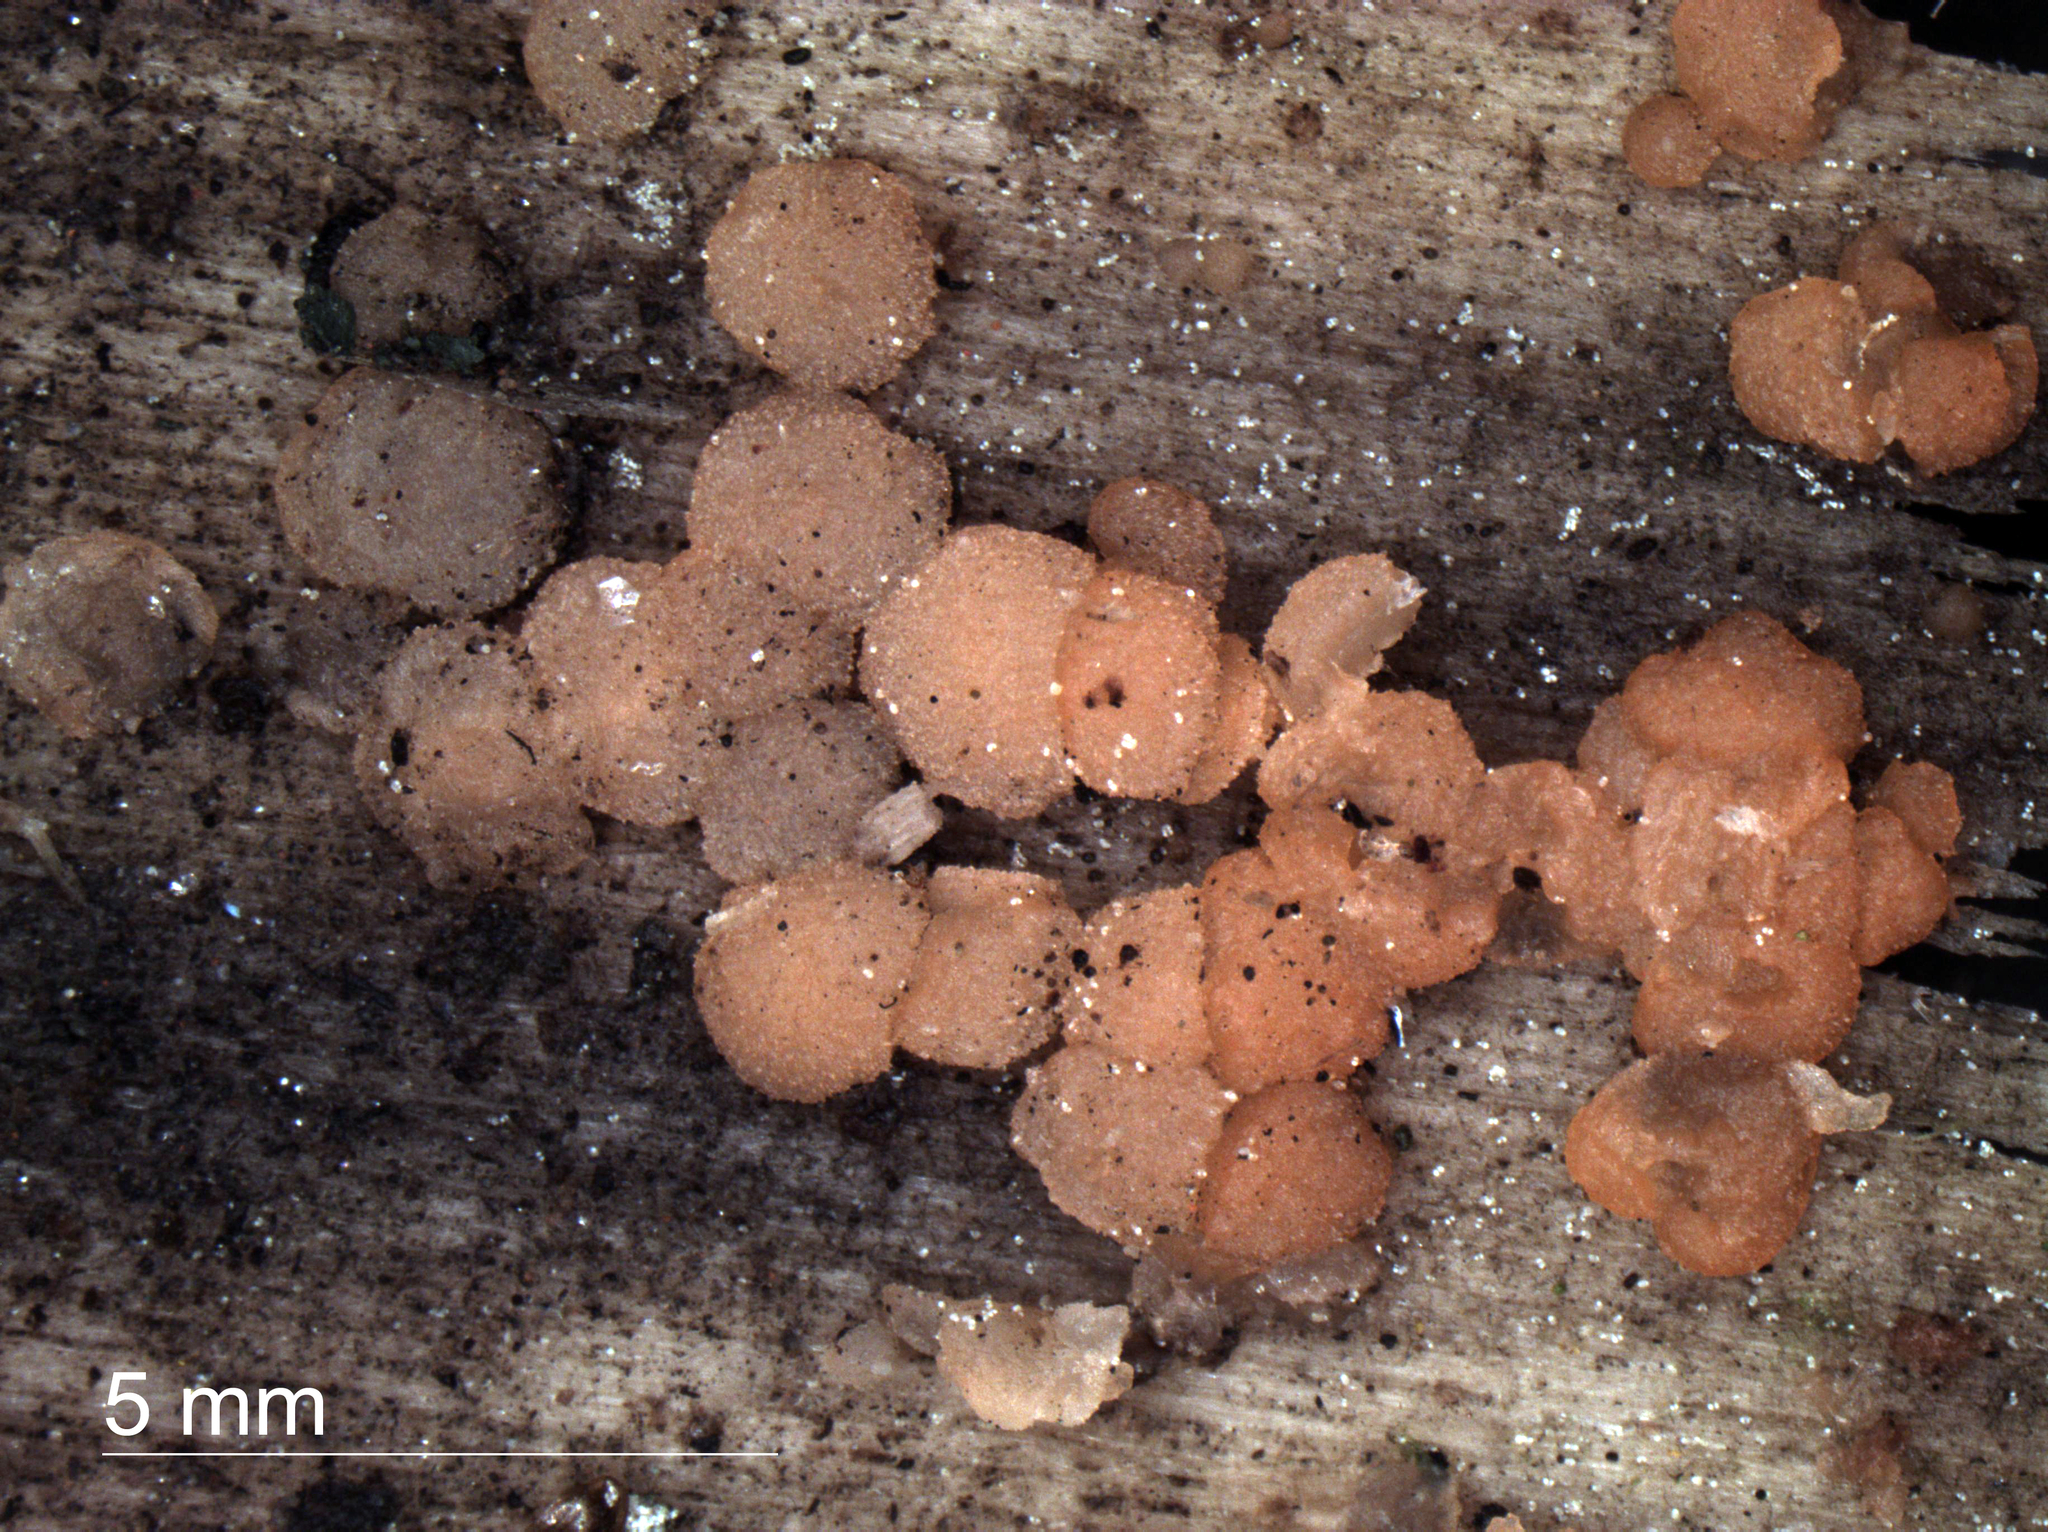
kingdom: Fungi
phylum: Ascomycota
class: Pezizomycetes
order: Pezizales
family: Pezizaceae
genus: Iodophanus
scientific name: Iodophanus carneus
